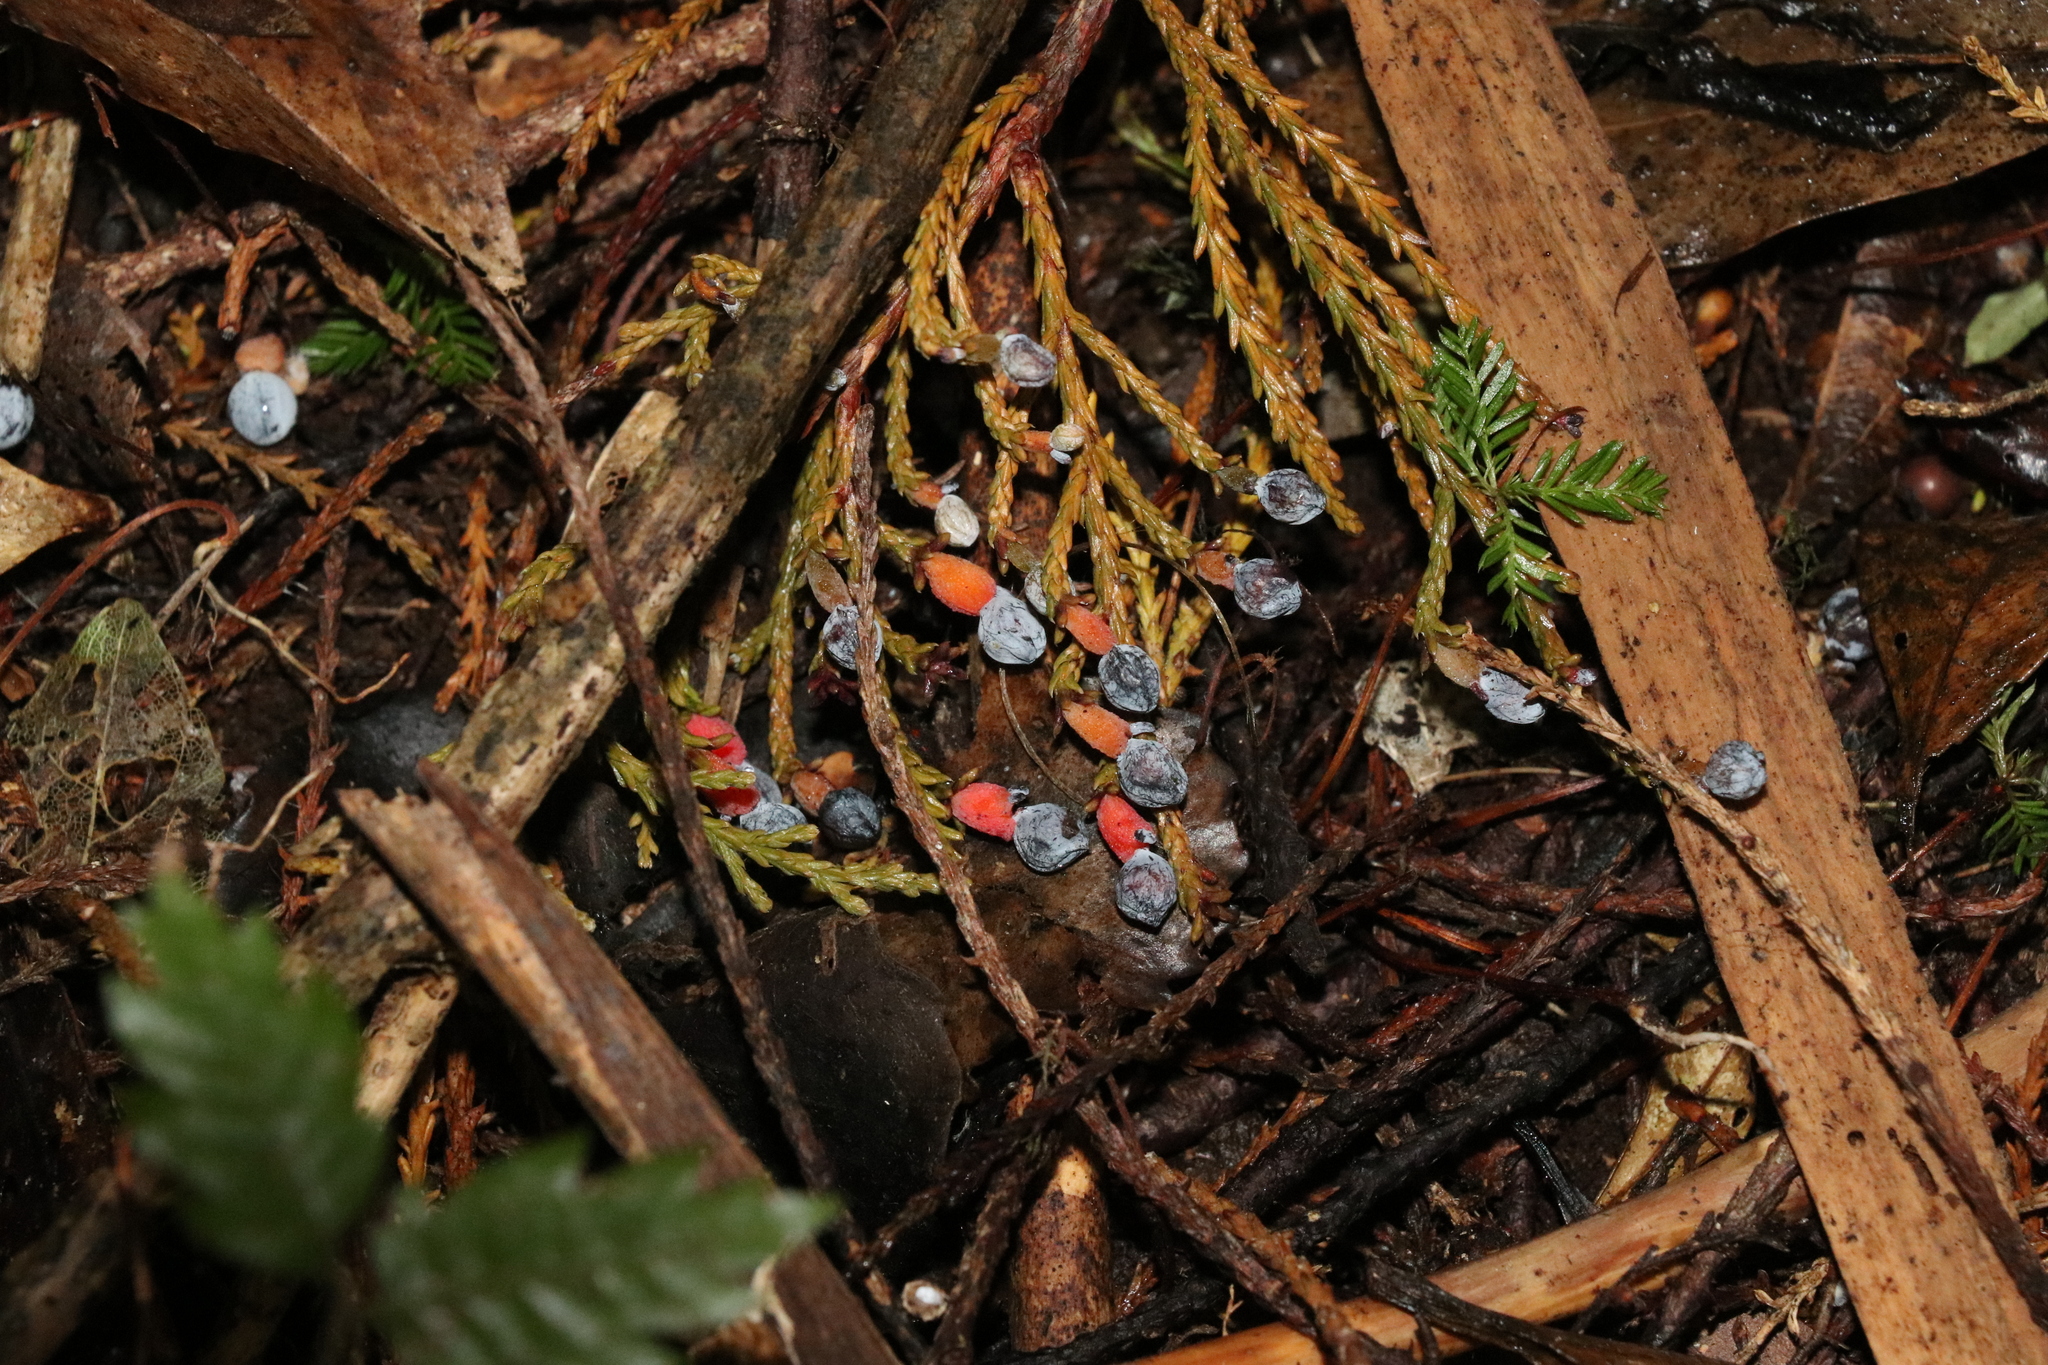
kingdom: Plantae
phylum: Tracheophyta
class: Pinopsida
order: Pinales
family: Podocarpaceae
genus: Dacrycarpus
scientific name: Dacrycarpus dacrydioides
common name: White pine
